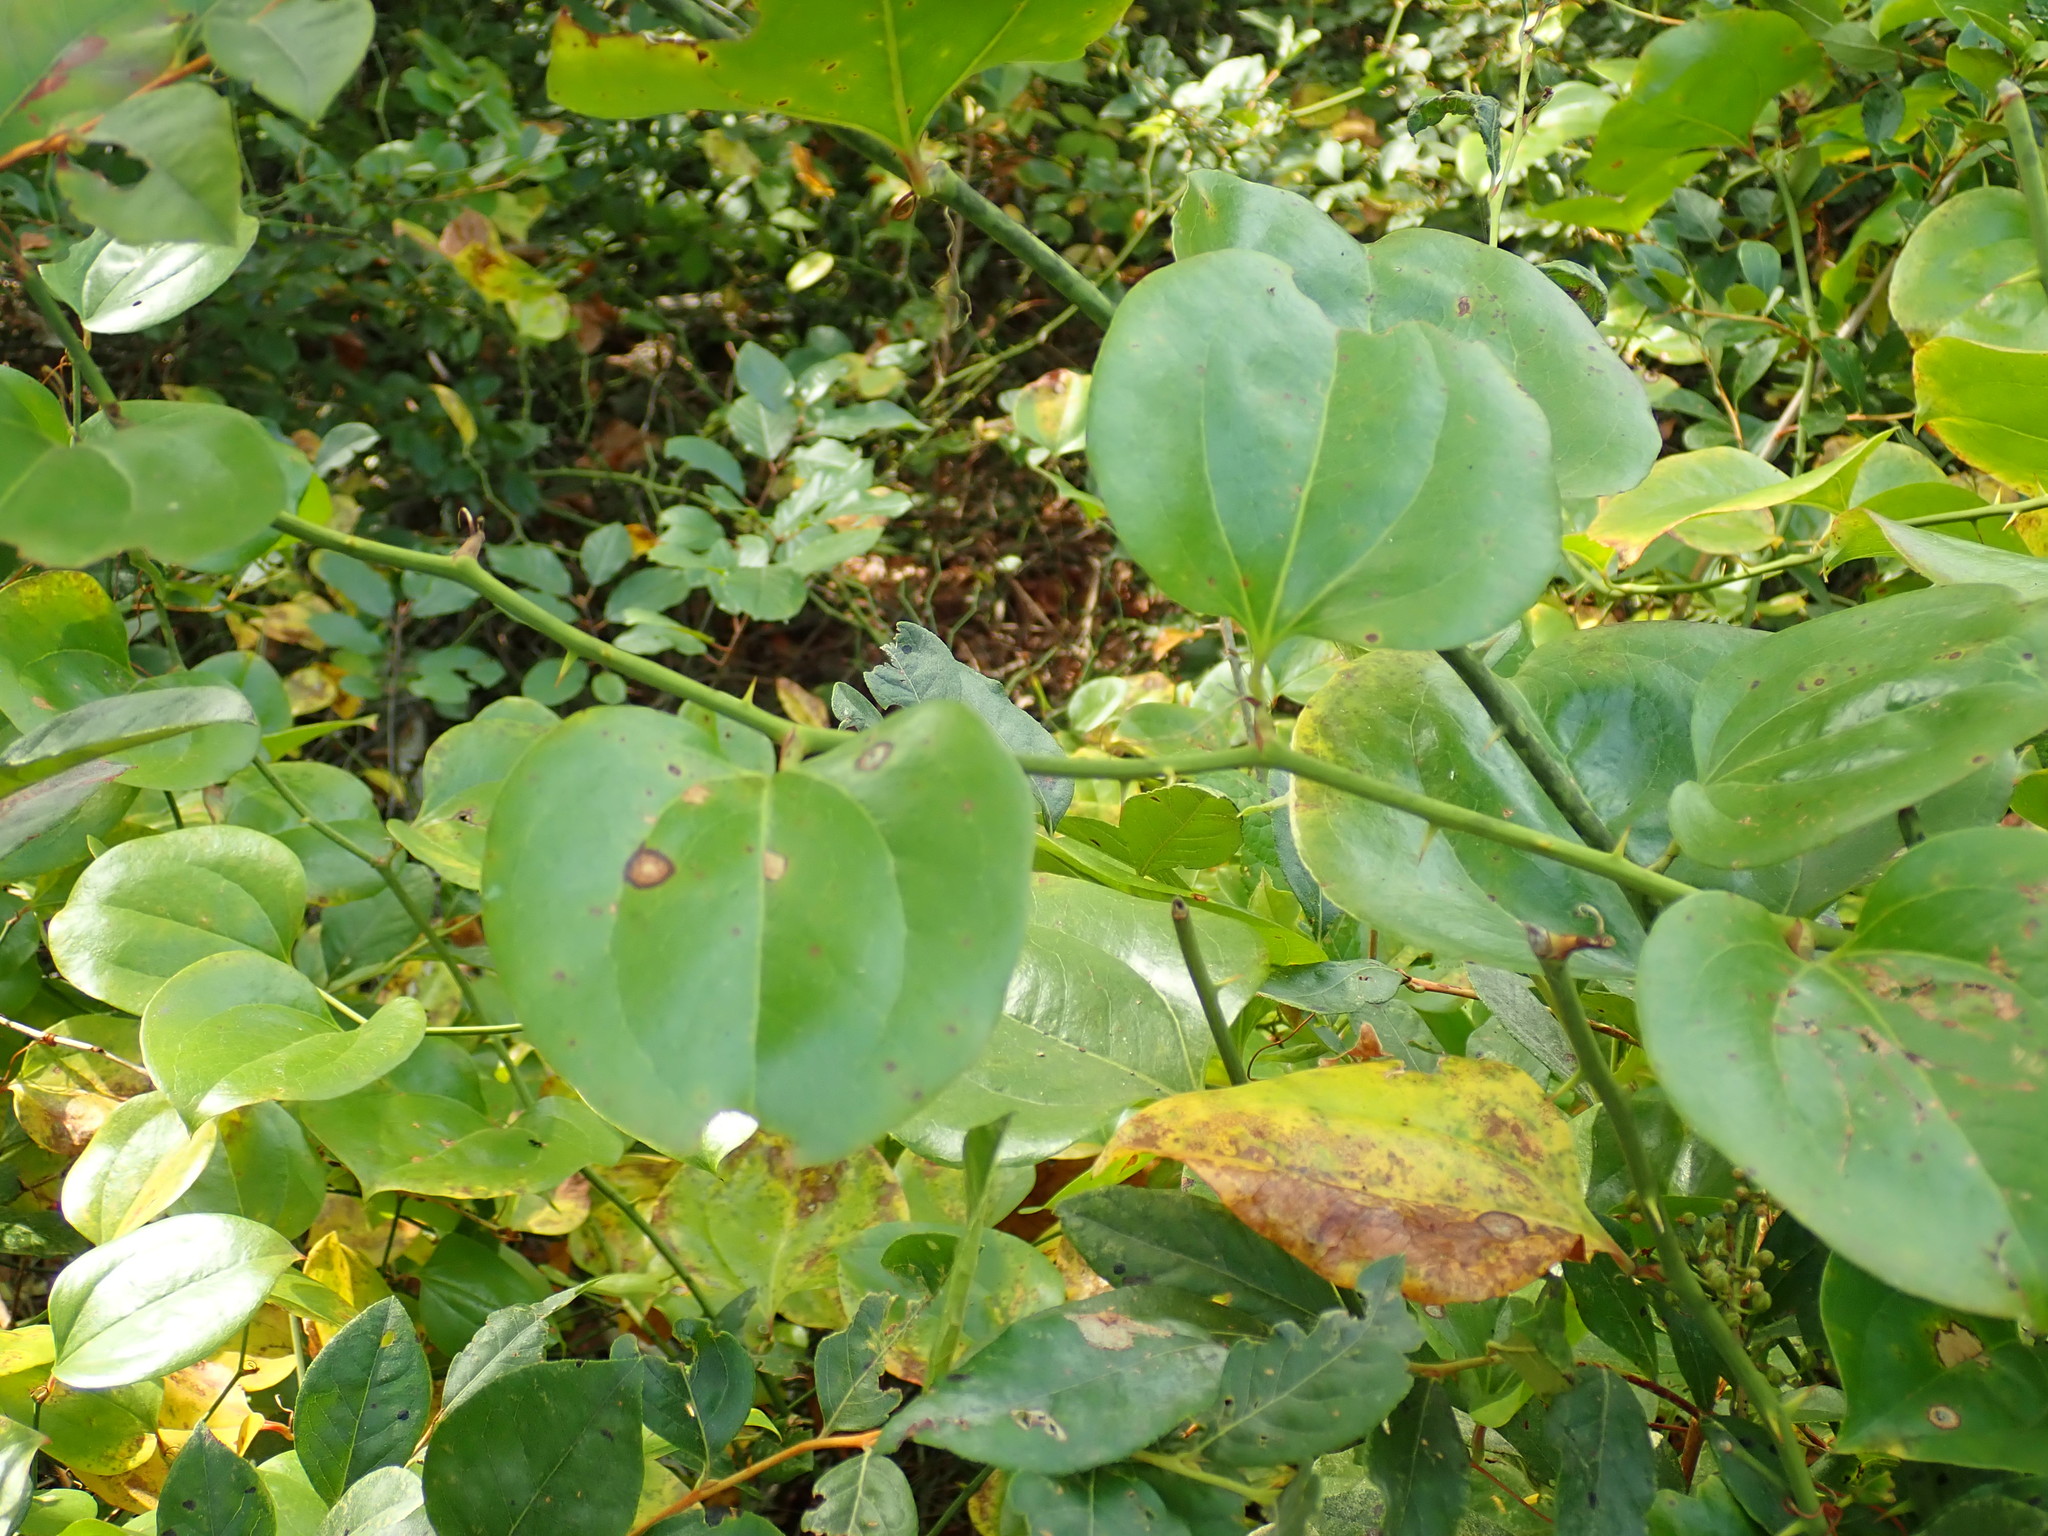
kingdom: Plantae
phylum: Tracheophyta
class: Liliopsida
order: Liliales
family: Smilacaceae
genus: Smilax
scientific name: Smilax rotundifolia
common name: Bullbriar
